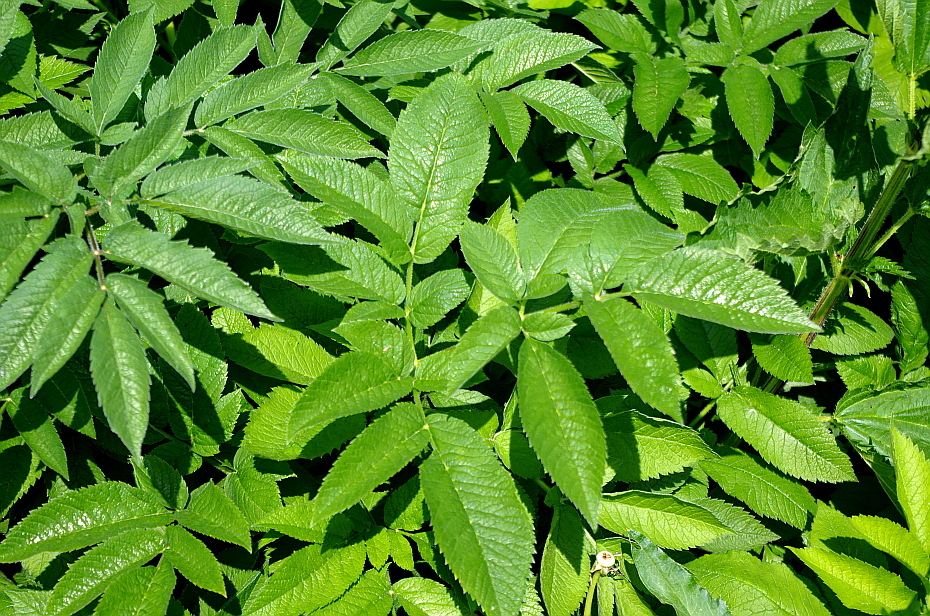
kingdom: Plantae
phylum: Tracheophyta
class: Magnoliopsida
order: Apiales
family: Apiaceae
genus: Chaerophyllum
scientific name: Chaerophyllum aromaticum
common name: Broadleaf chervil
